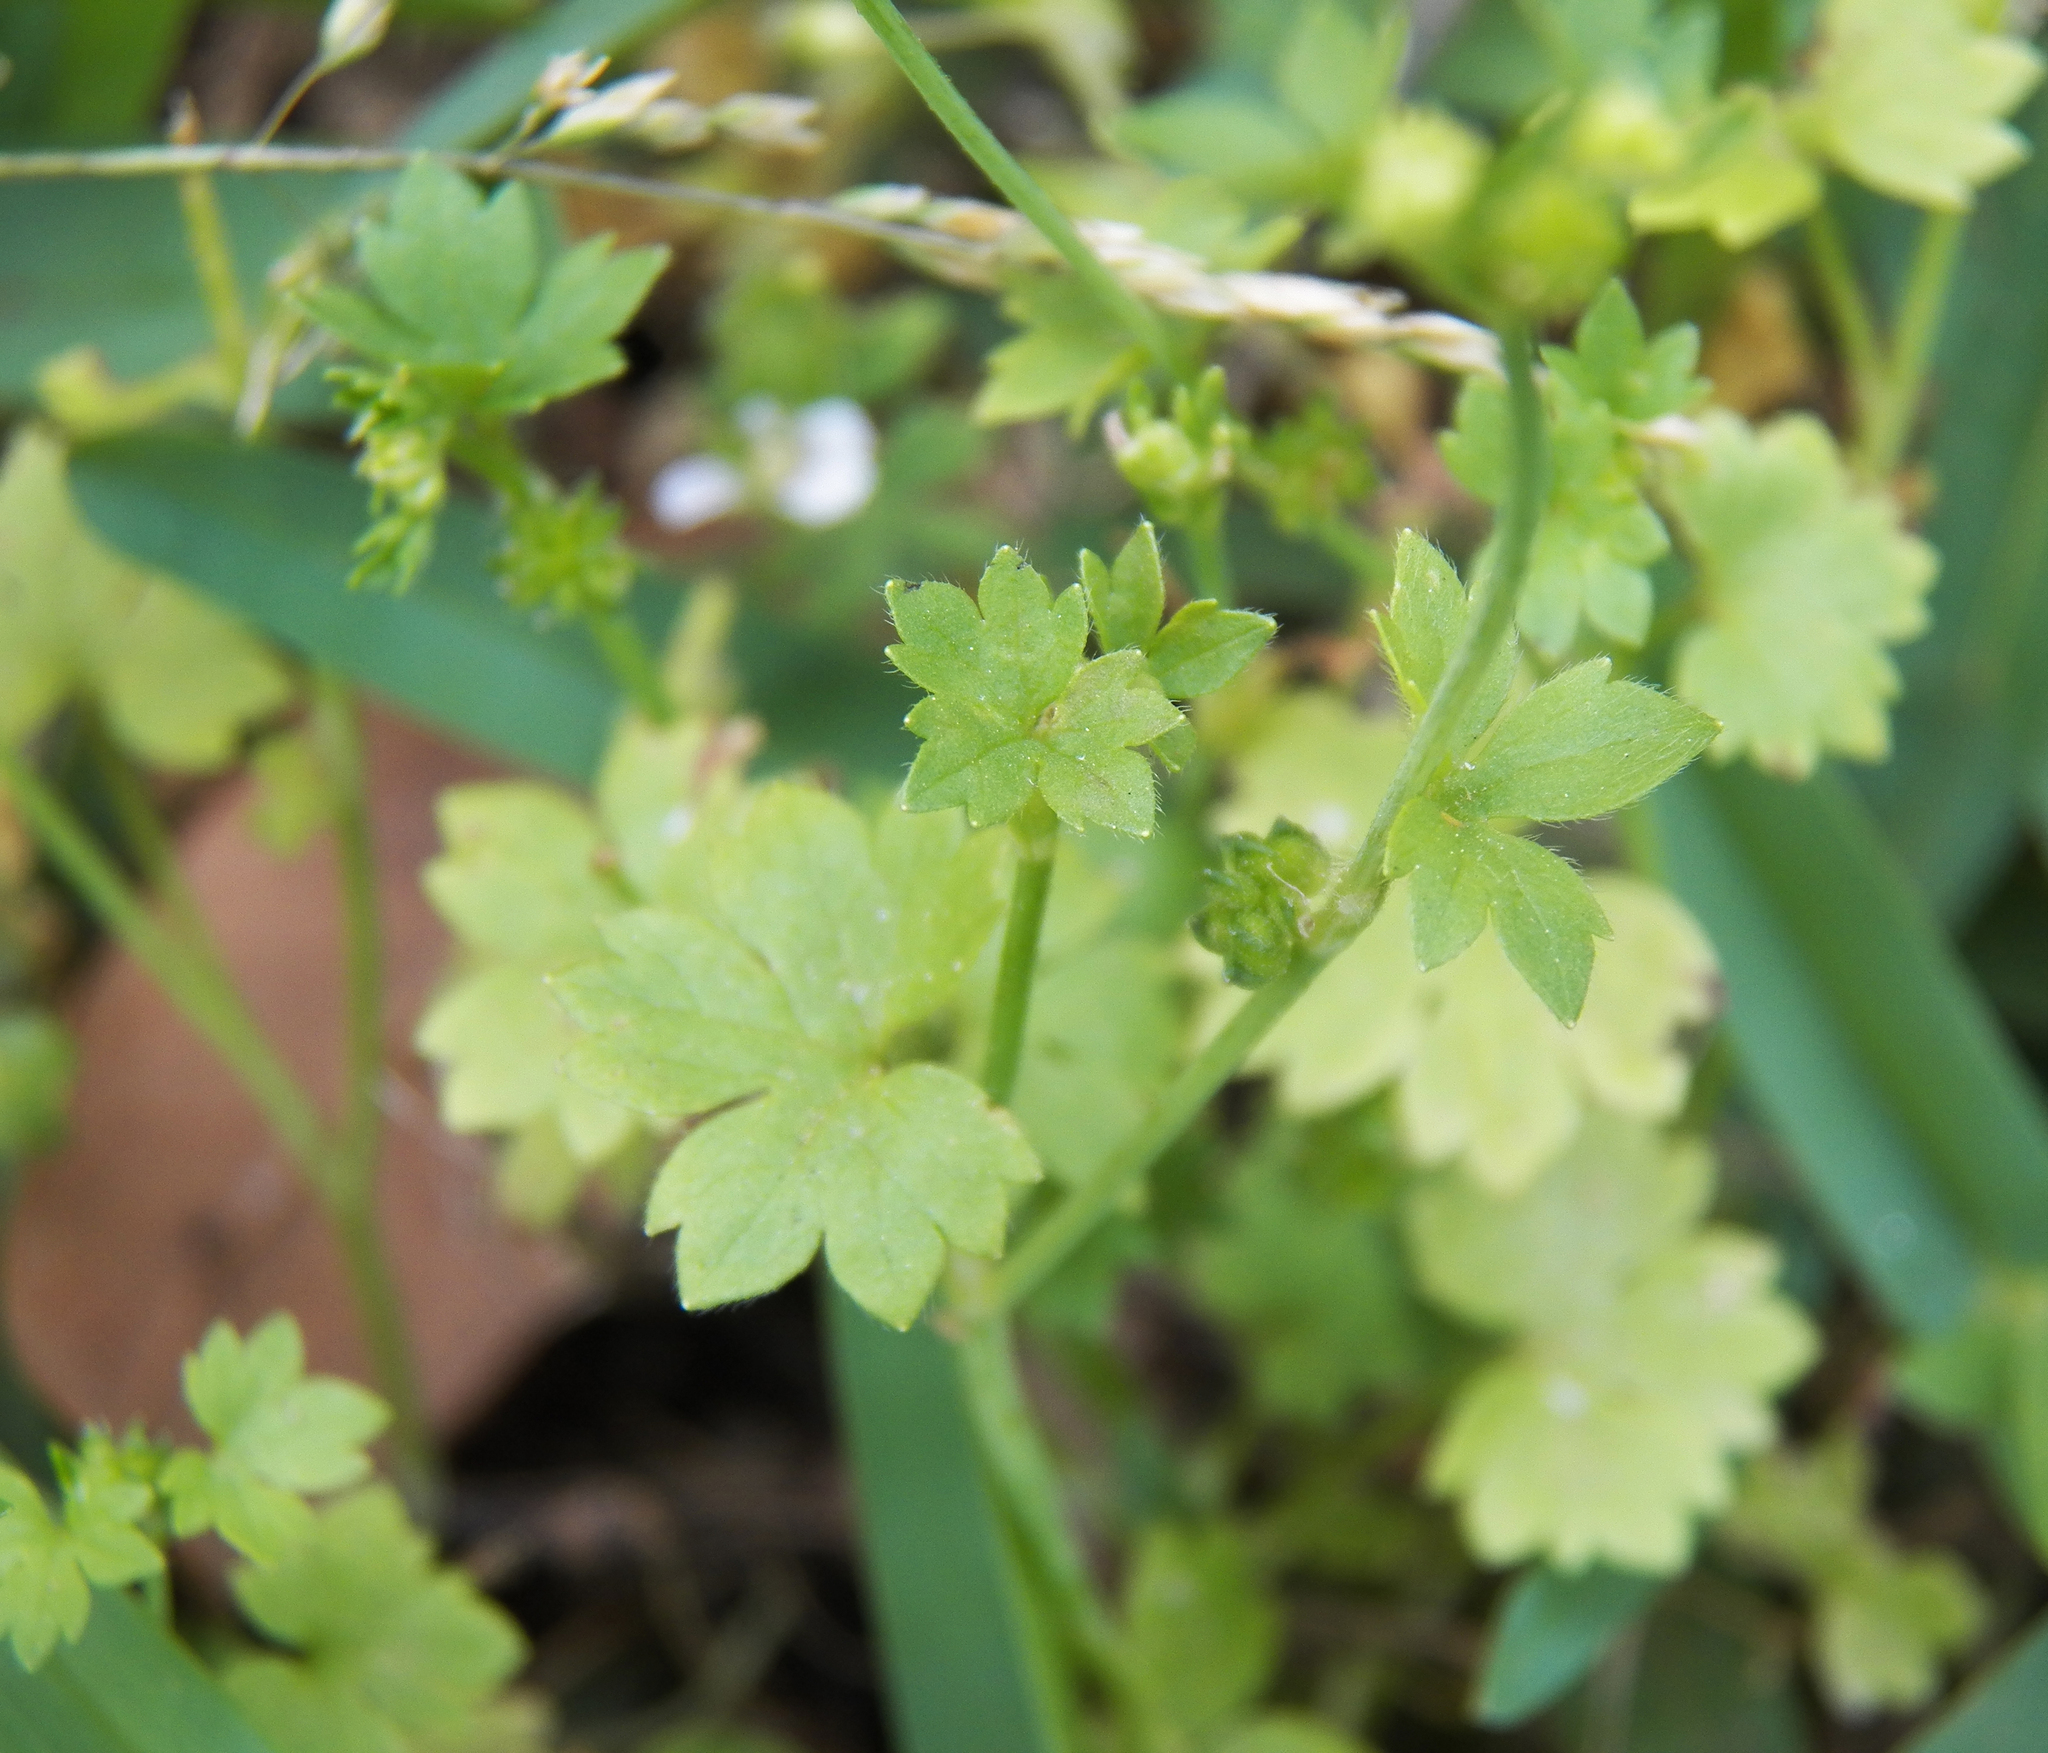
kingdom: Plantae
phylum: Tracheophyta
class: Magnoliopsida
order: Ranunculales
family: Ranunculaceae
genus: Ranunculus
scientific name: Ranunculus platensis
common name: Prairie buttercup
